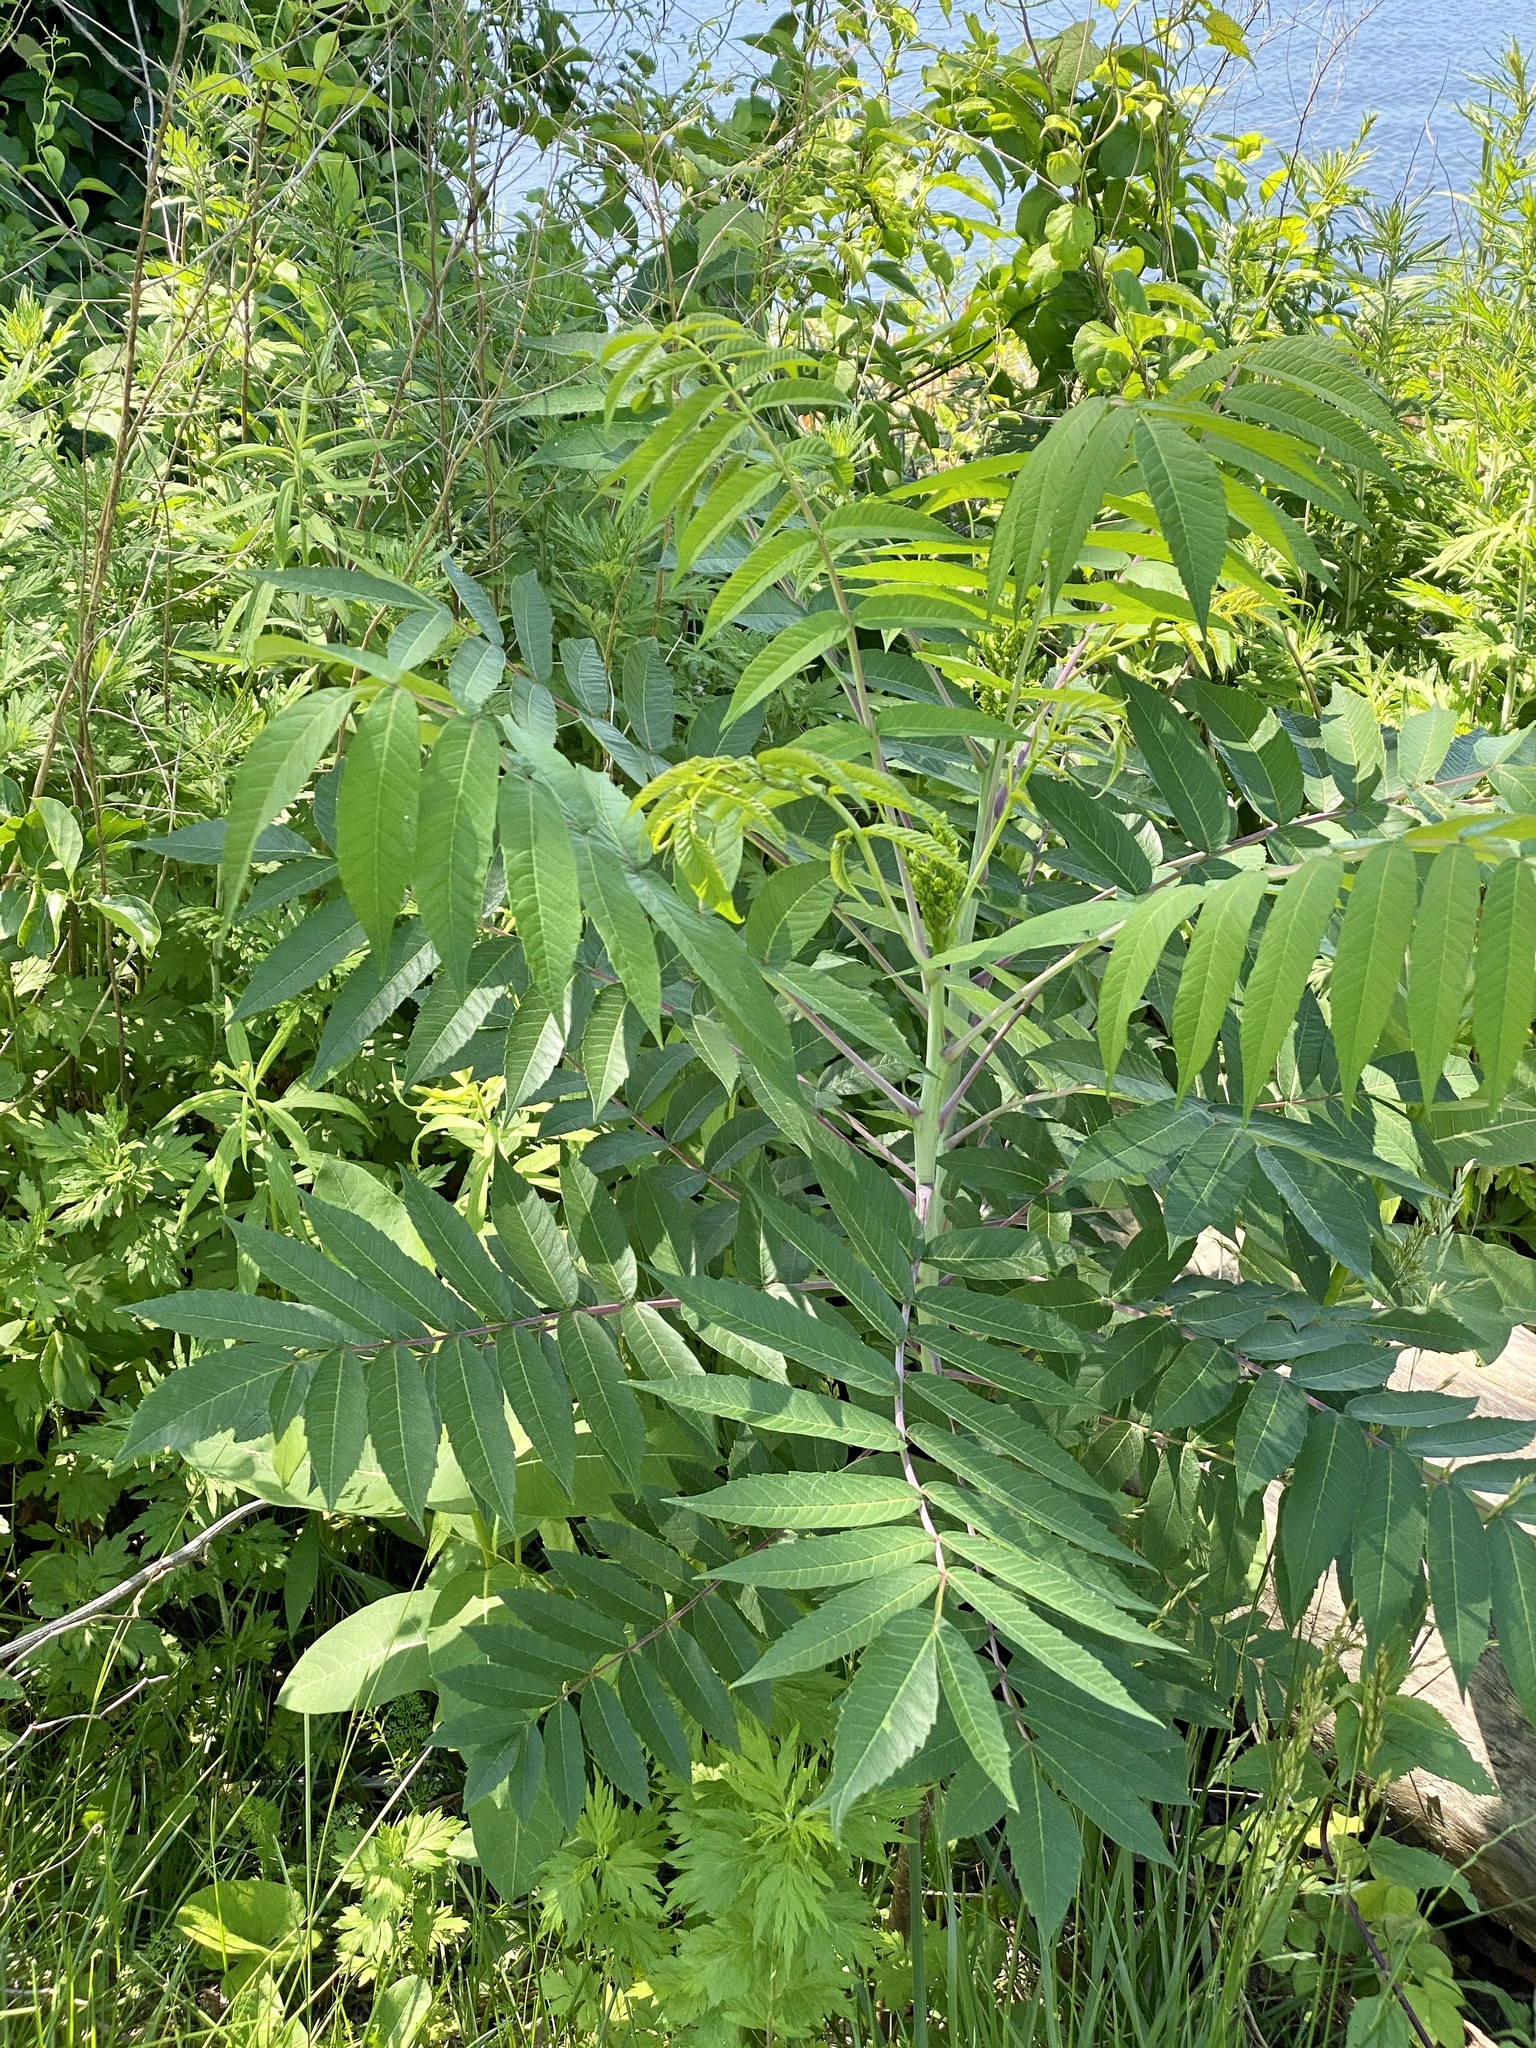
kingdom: Plantae
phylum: Tracheophyta
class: Magnoliopsida
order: Sapindales
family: Anacardiaceae
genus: Rhus
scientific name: Rhus glabra
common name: Scarlet sumac
